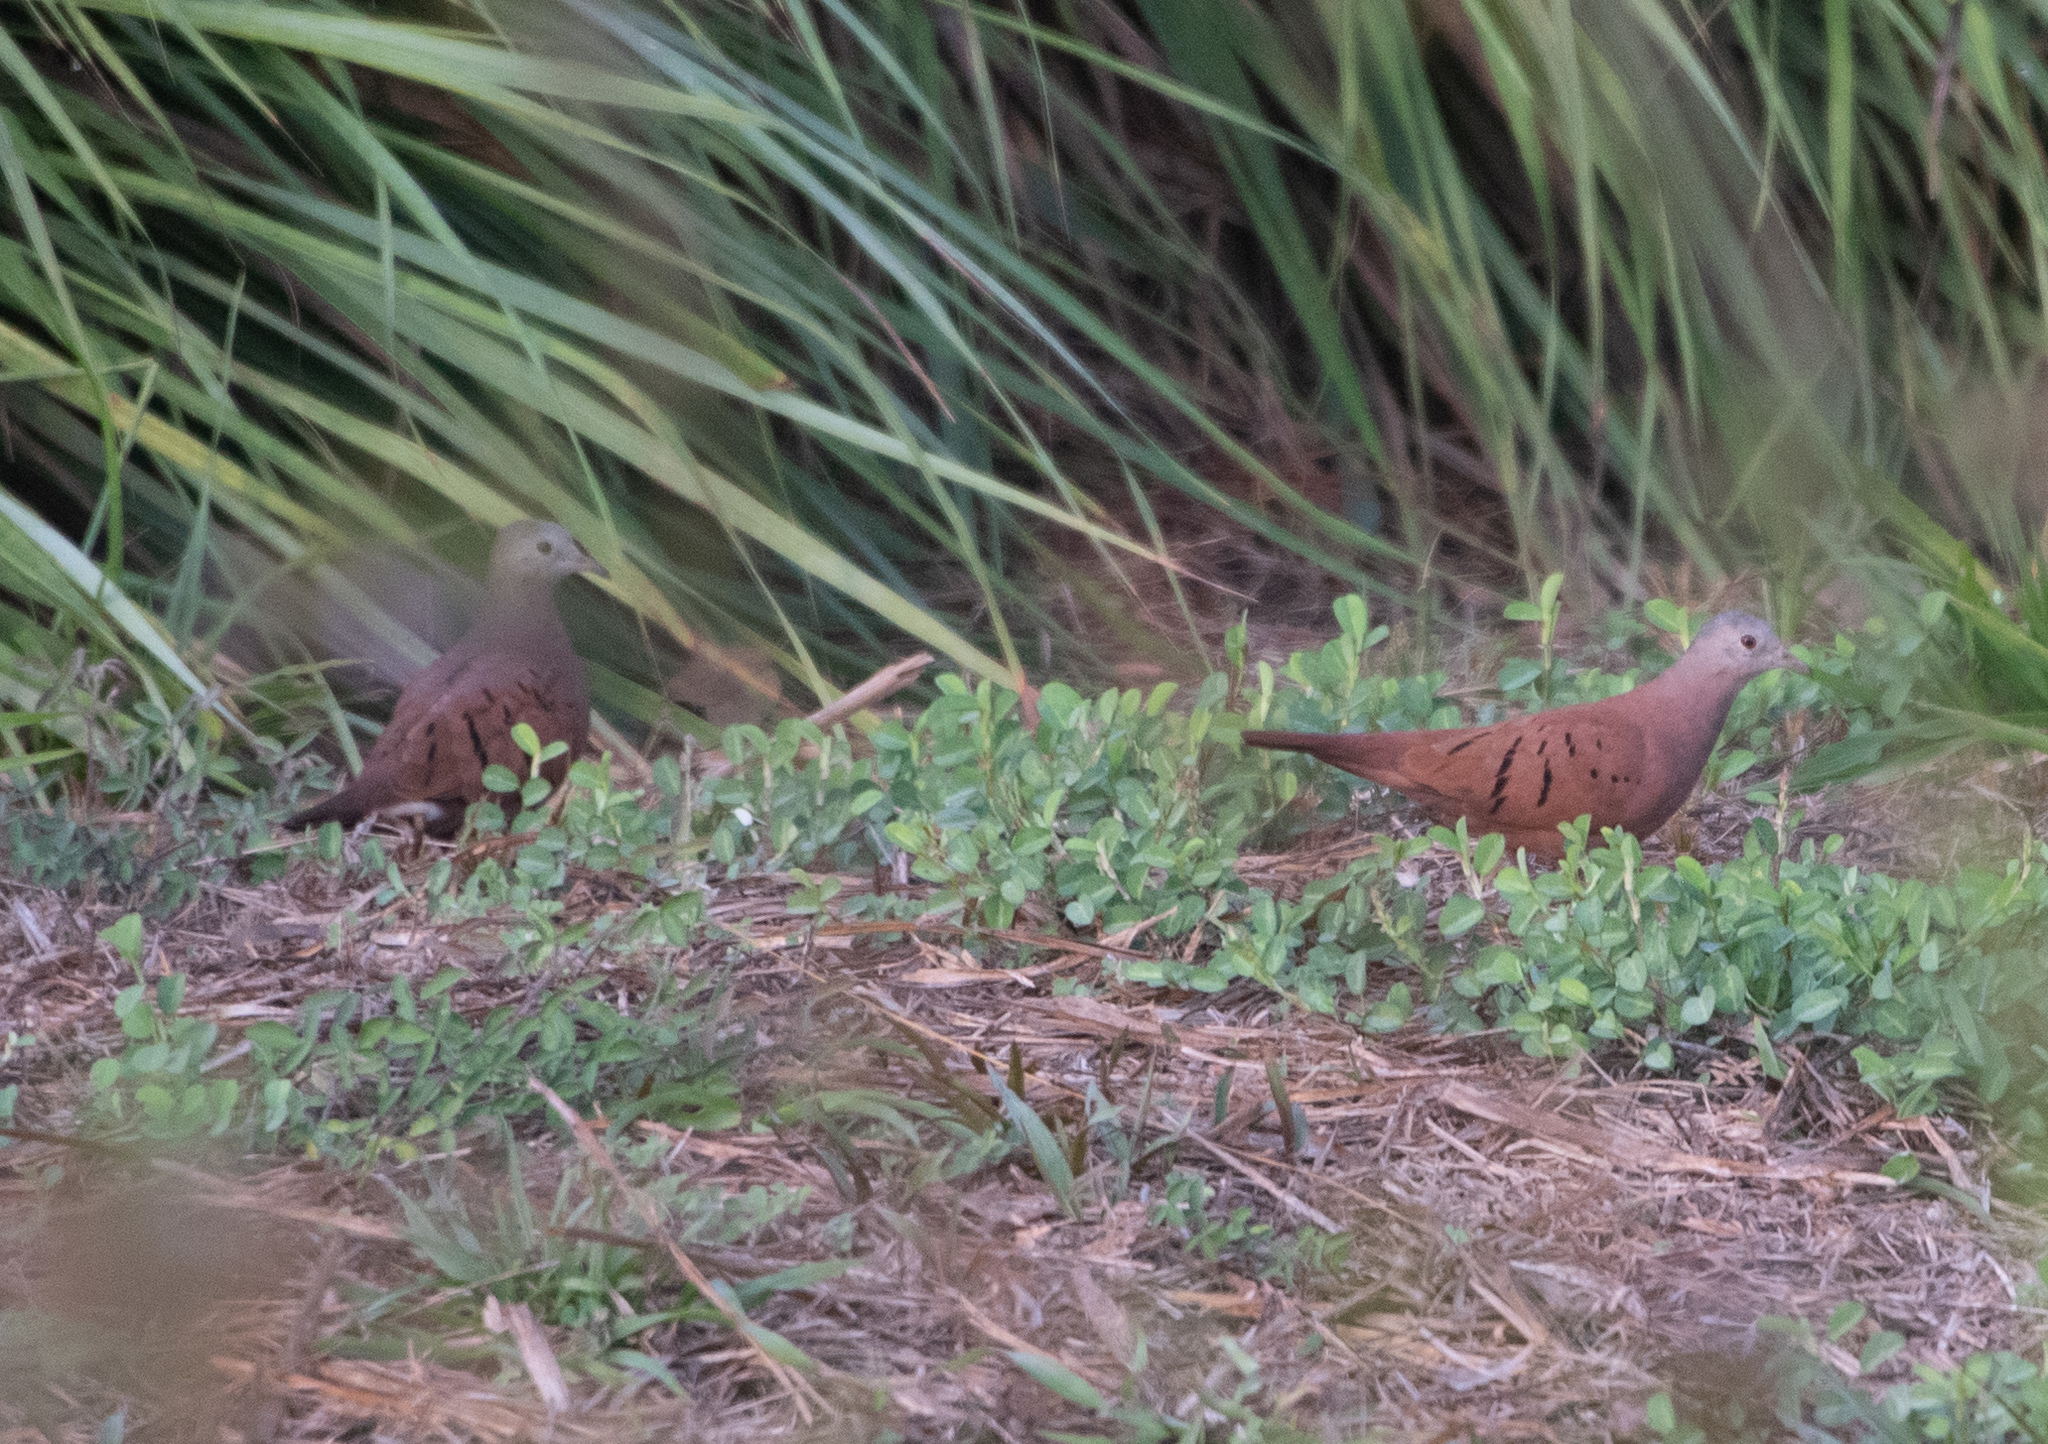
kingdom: Animalia
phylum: Chordata
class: Aves
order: Columbiformes
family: Columbidae
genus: Columbina
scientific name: Columbina talpacoti
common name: Ruddy ground dove
